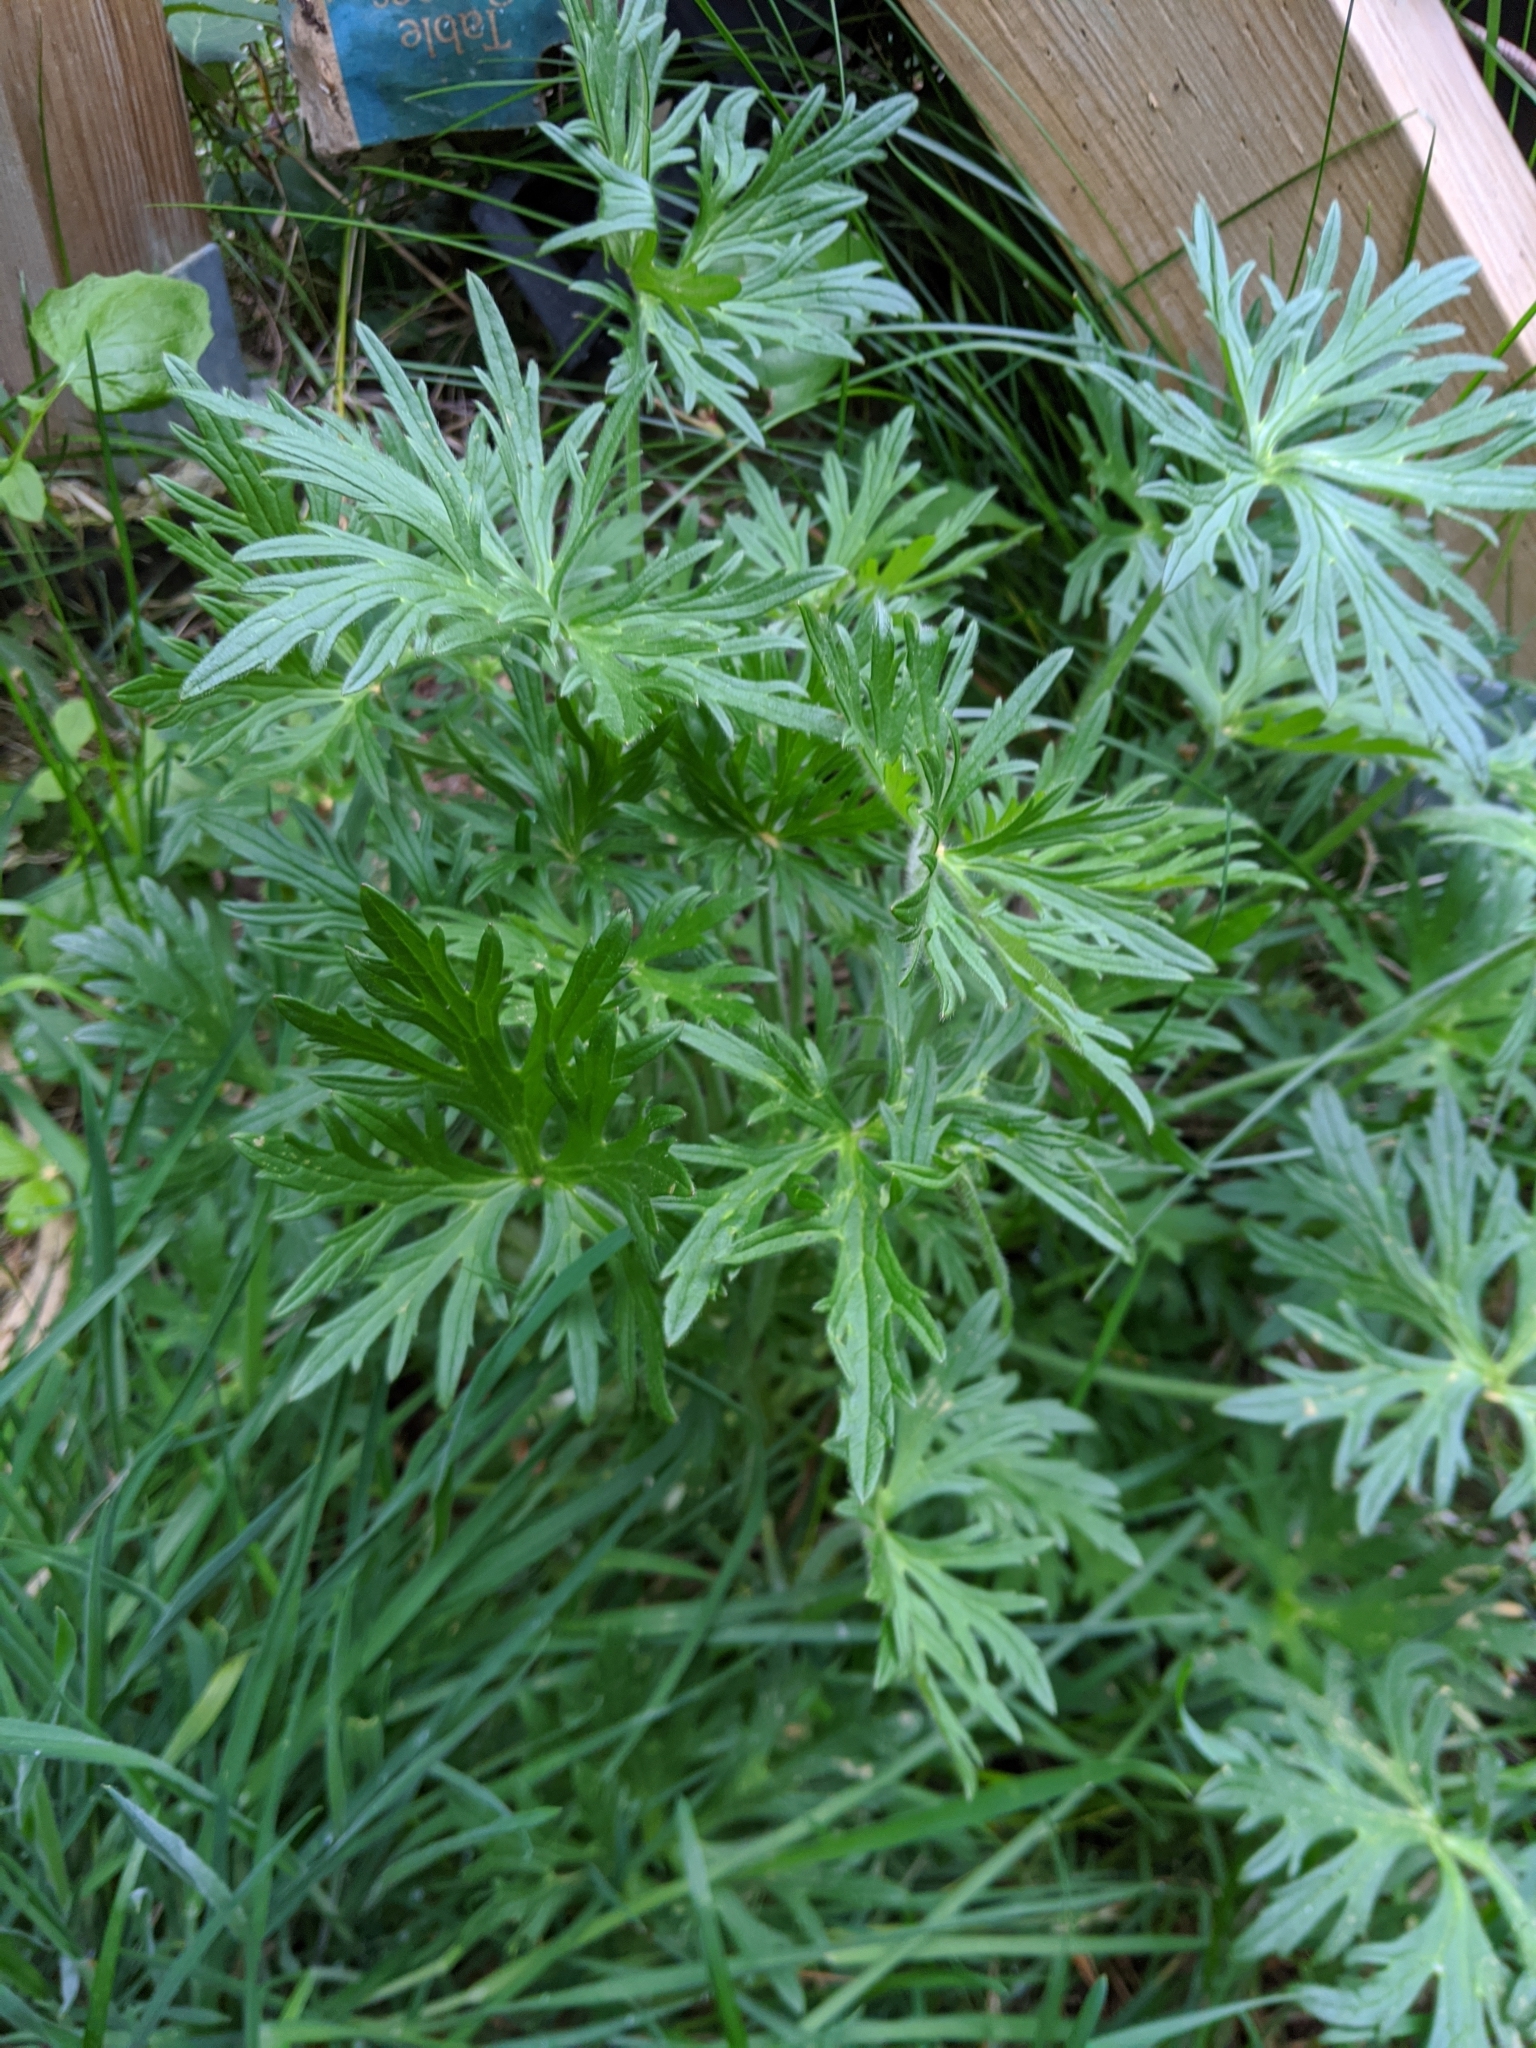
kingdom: Plantae
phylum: Tracheophyta
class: Magnoliopsida
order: Ranunculales
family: Ranunculaceae
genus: Ranunculus
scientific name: Ranunculus acris
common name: Meadow buttercup
